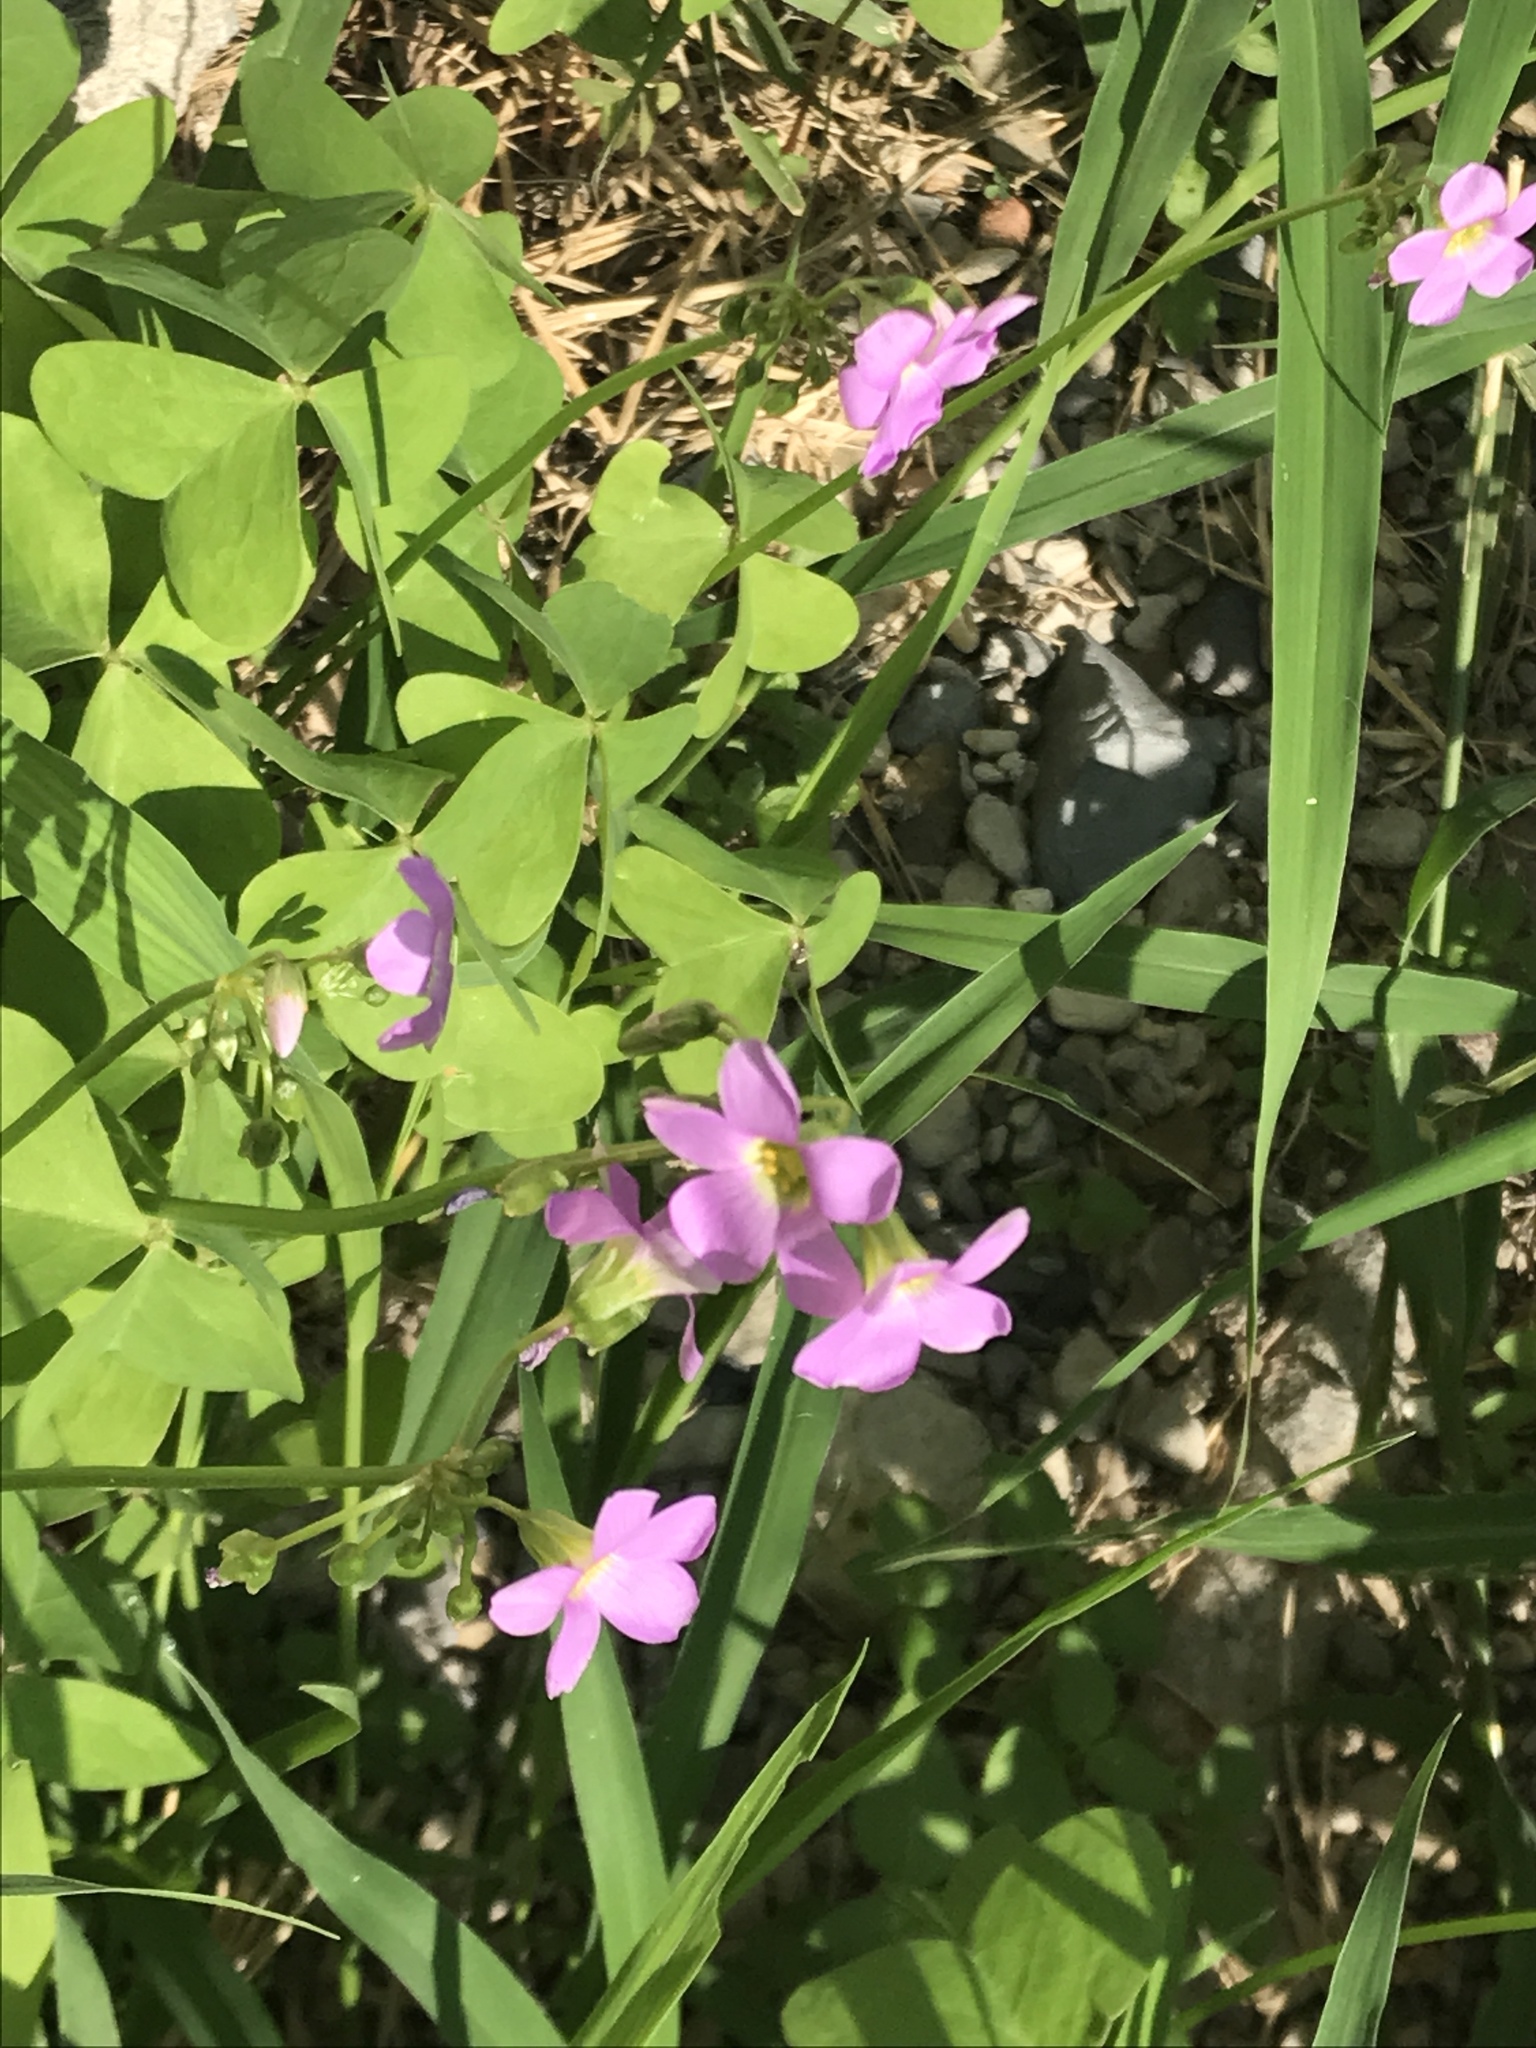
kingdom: Plantae
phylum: Tracheophyta
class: Magnoliopsida
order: Oxalidales
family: Oxalidaceae
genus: Oxalis
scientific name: Oxalis latifolia
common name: Garden pink-sorrel
